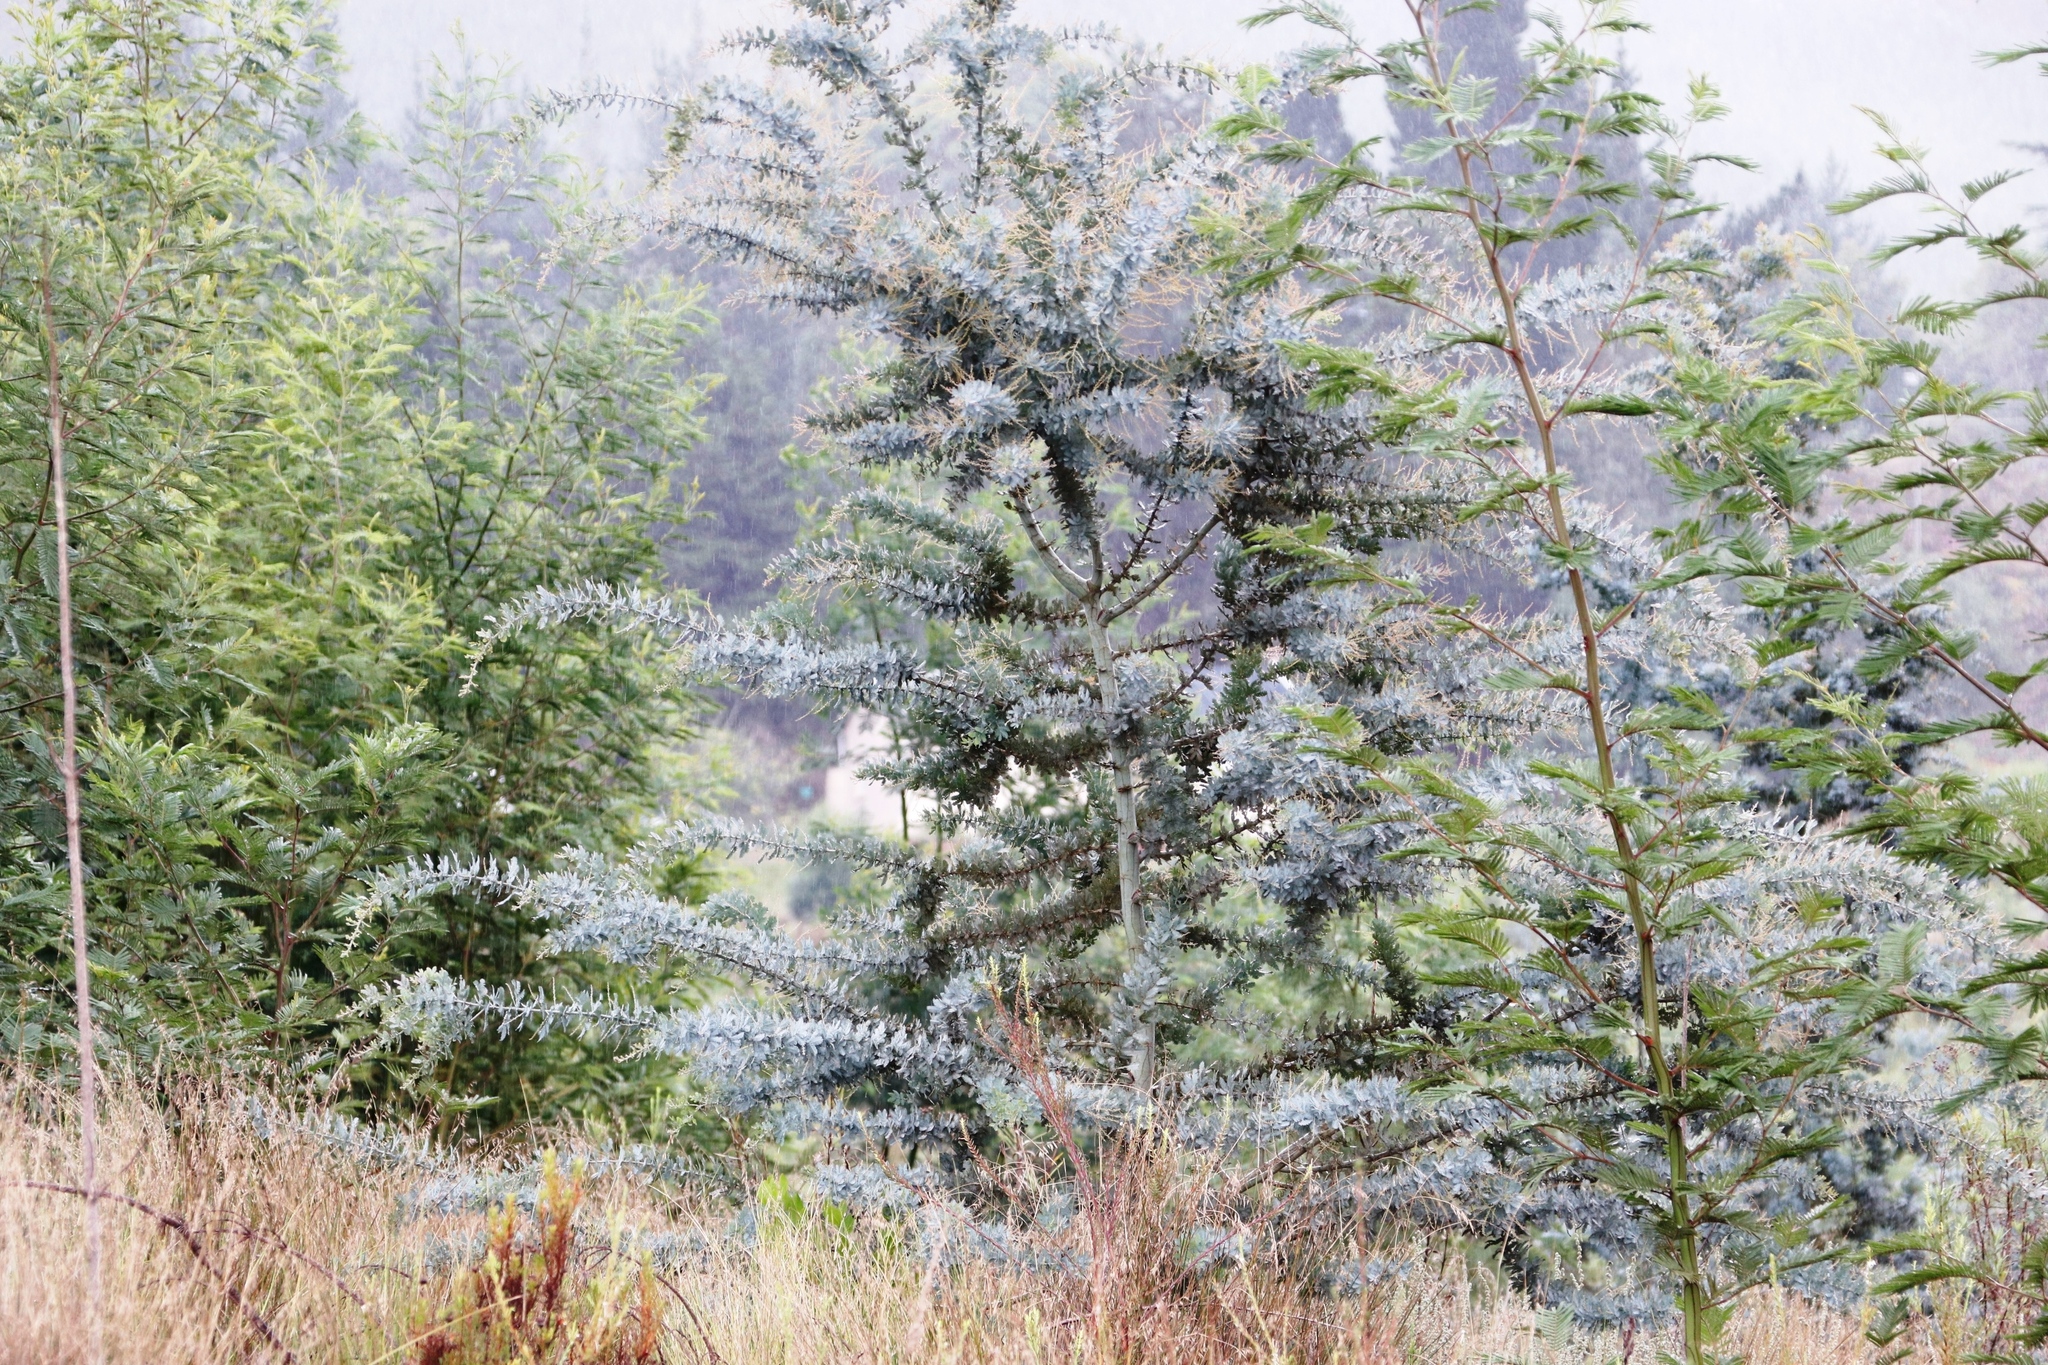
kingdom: Plantae
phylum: Tracheophyta
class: Magnoliopsida
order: Fabales
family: Fabaceae
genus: Acacia
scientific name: Acacia baileyana
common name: Cootamundra wattle
